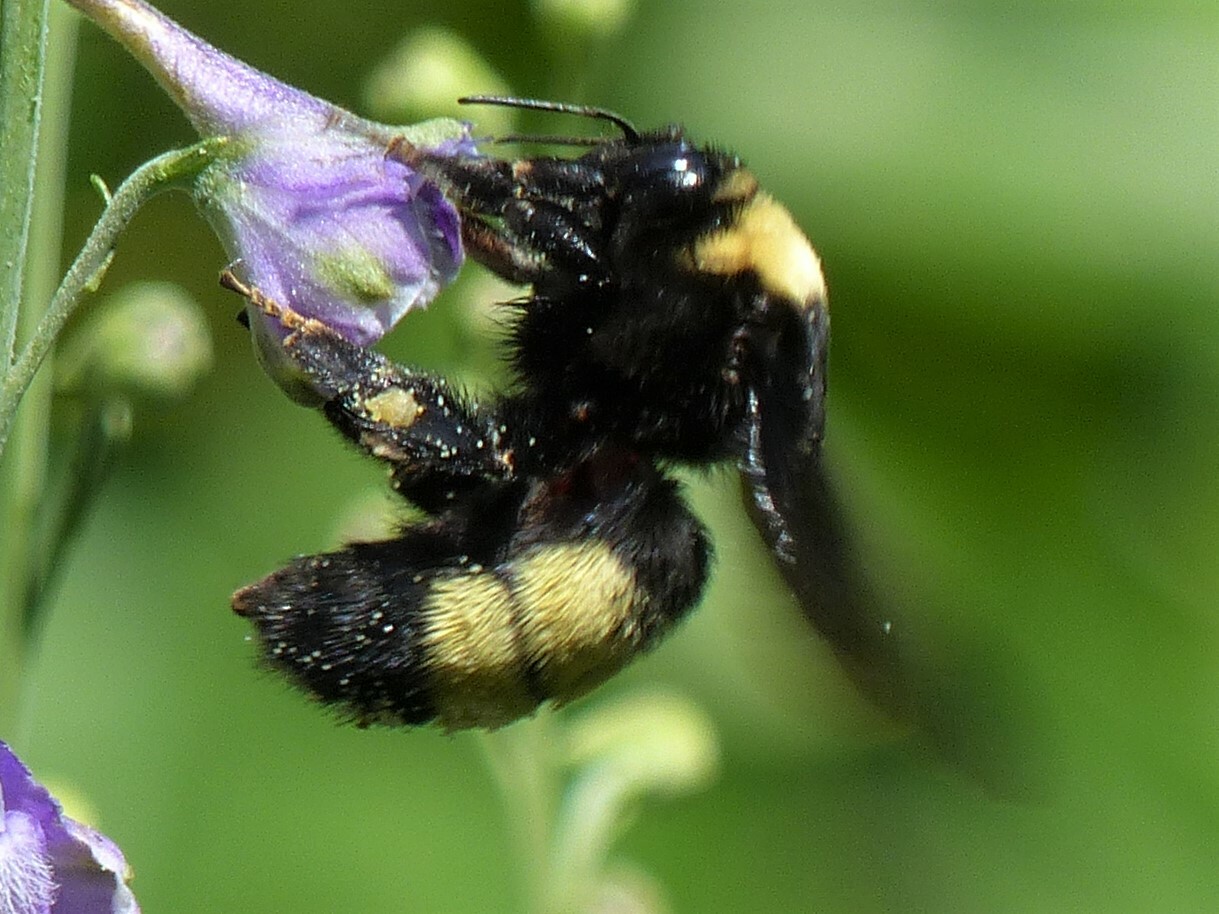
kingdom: Animalia
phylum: Arthropoda
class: Insecta
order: Hymenoptera
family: Apidae
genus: Bombus
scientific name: Bombus auricomus
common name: Black and gold bumble bee
